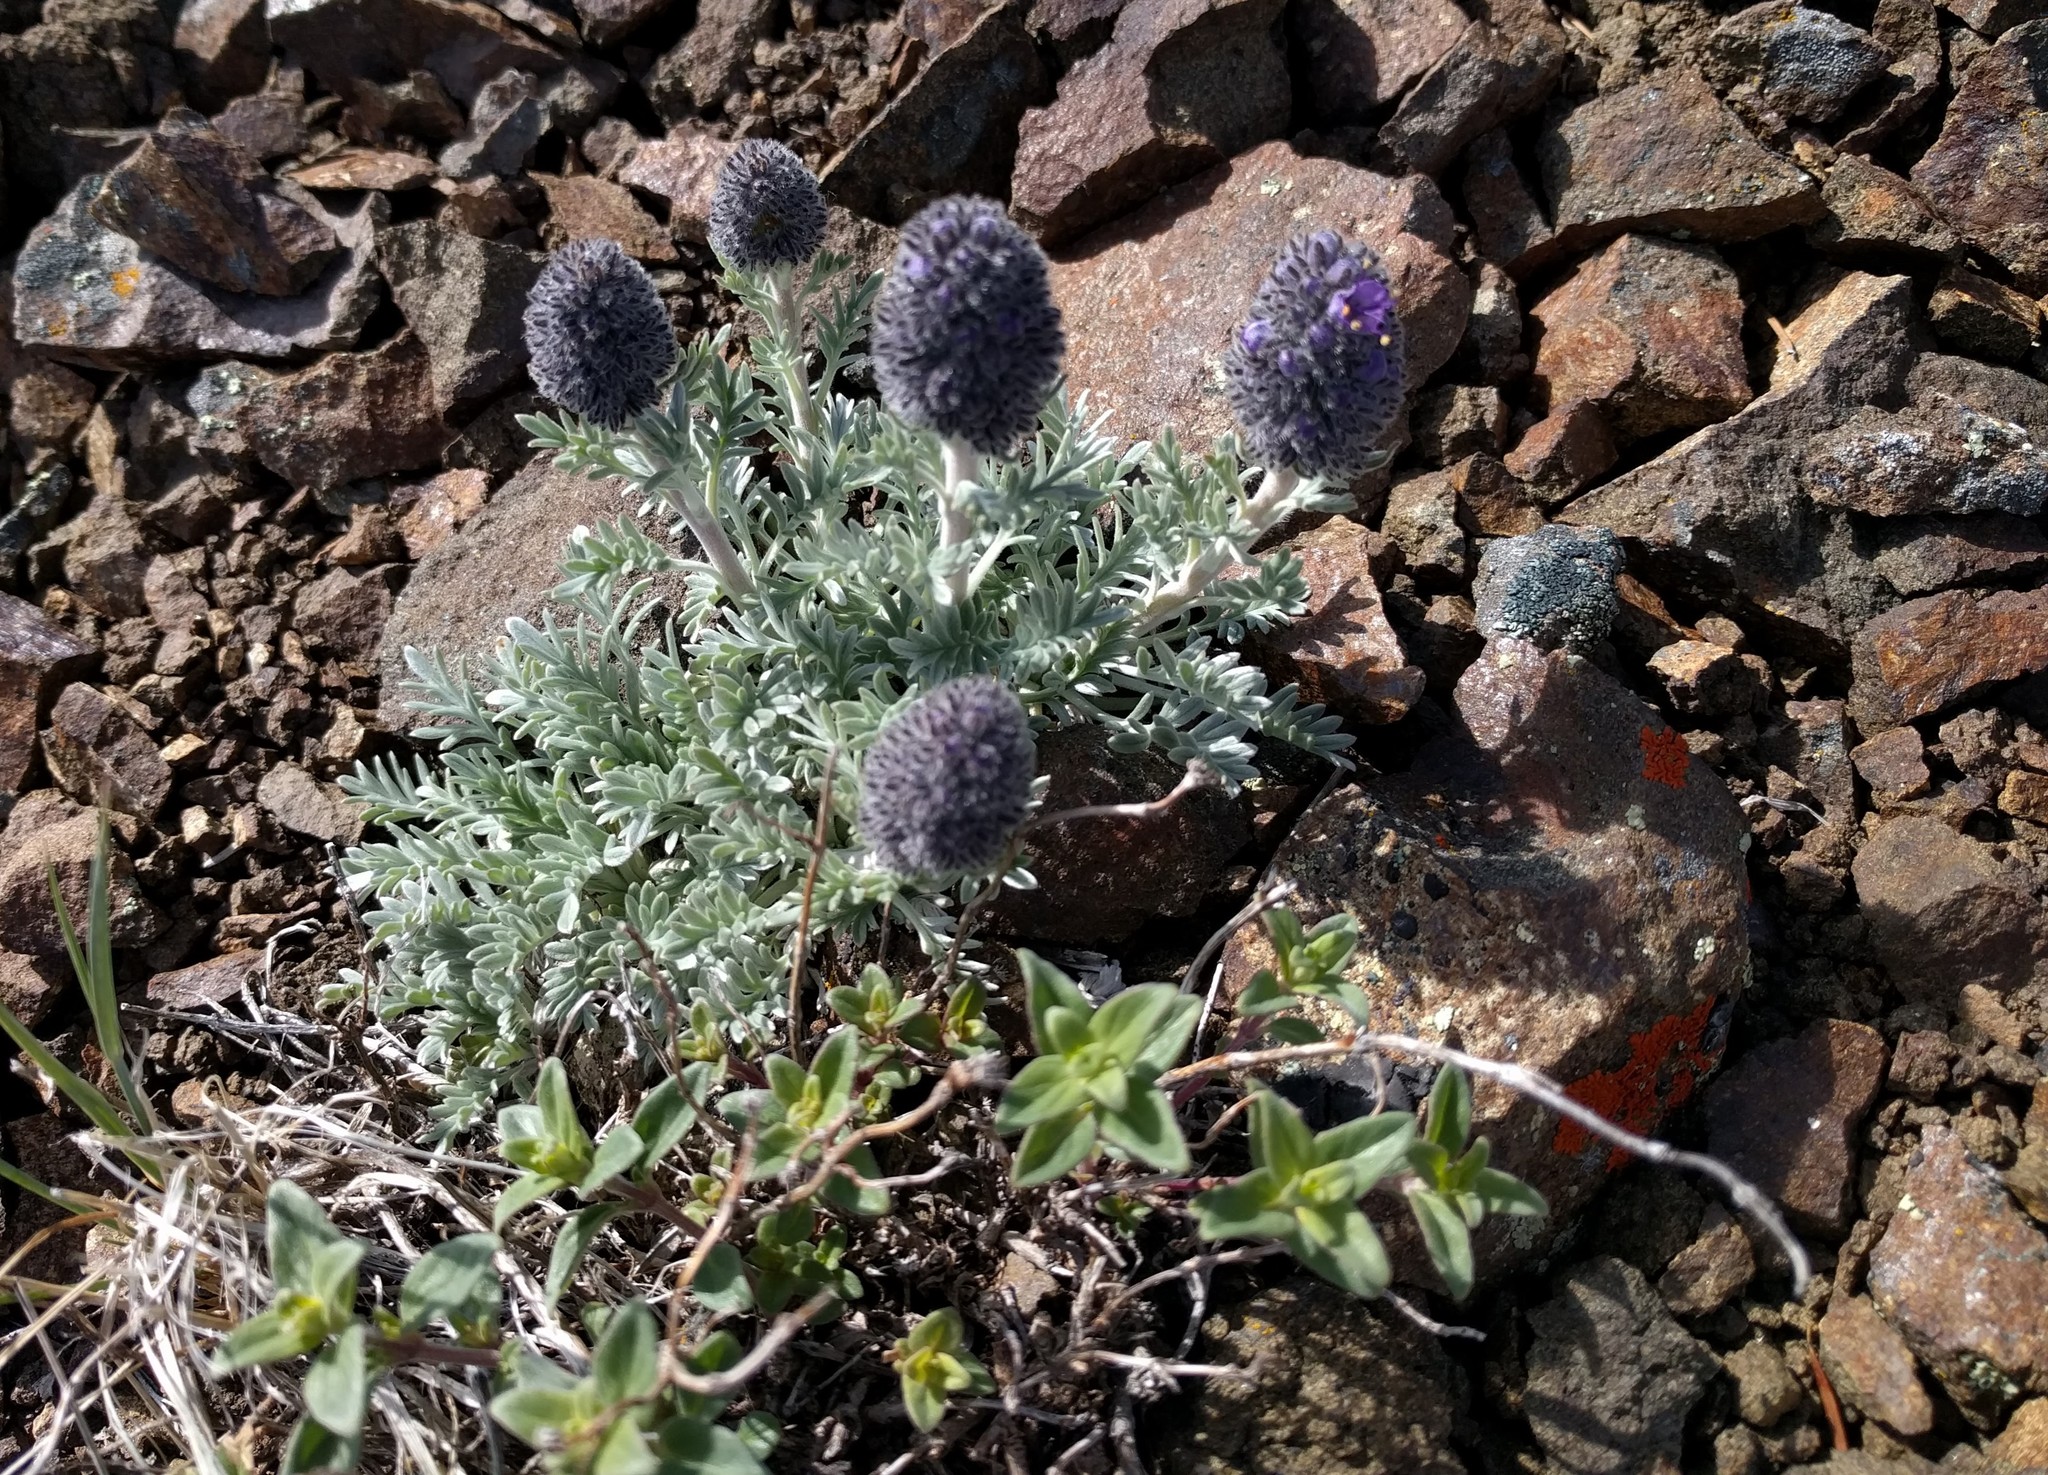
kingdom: Plantae
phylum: Tracheophyta
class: Magnoliopsida
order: Boraginales
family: Hydrophyllaceae
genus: Phacelia
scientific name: Phacelia sericea
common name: Silky phacelia
